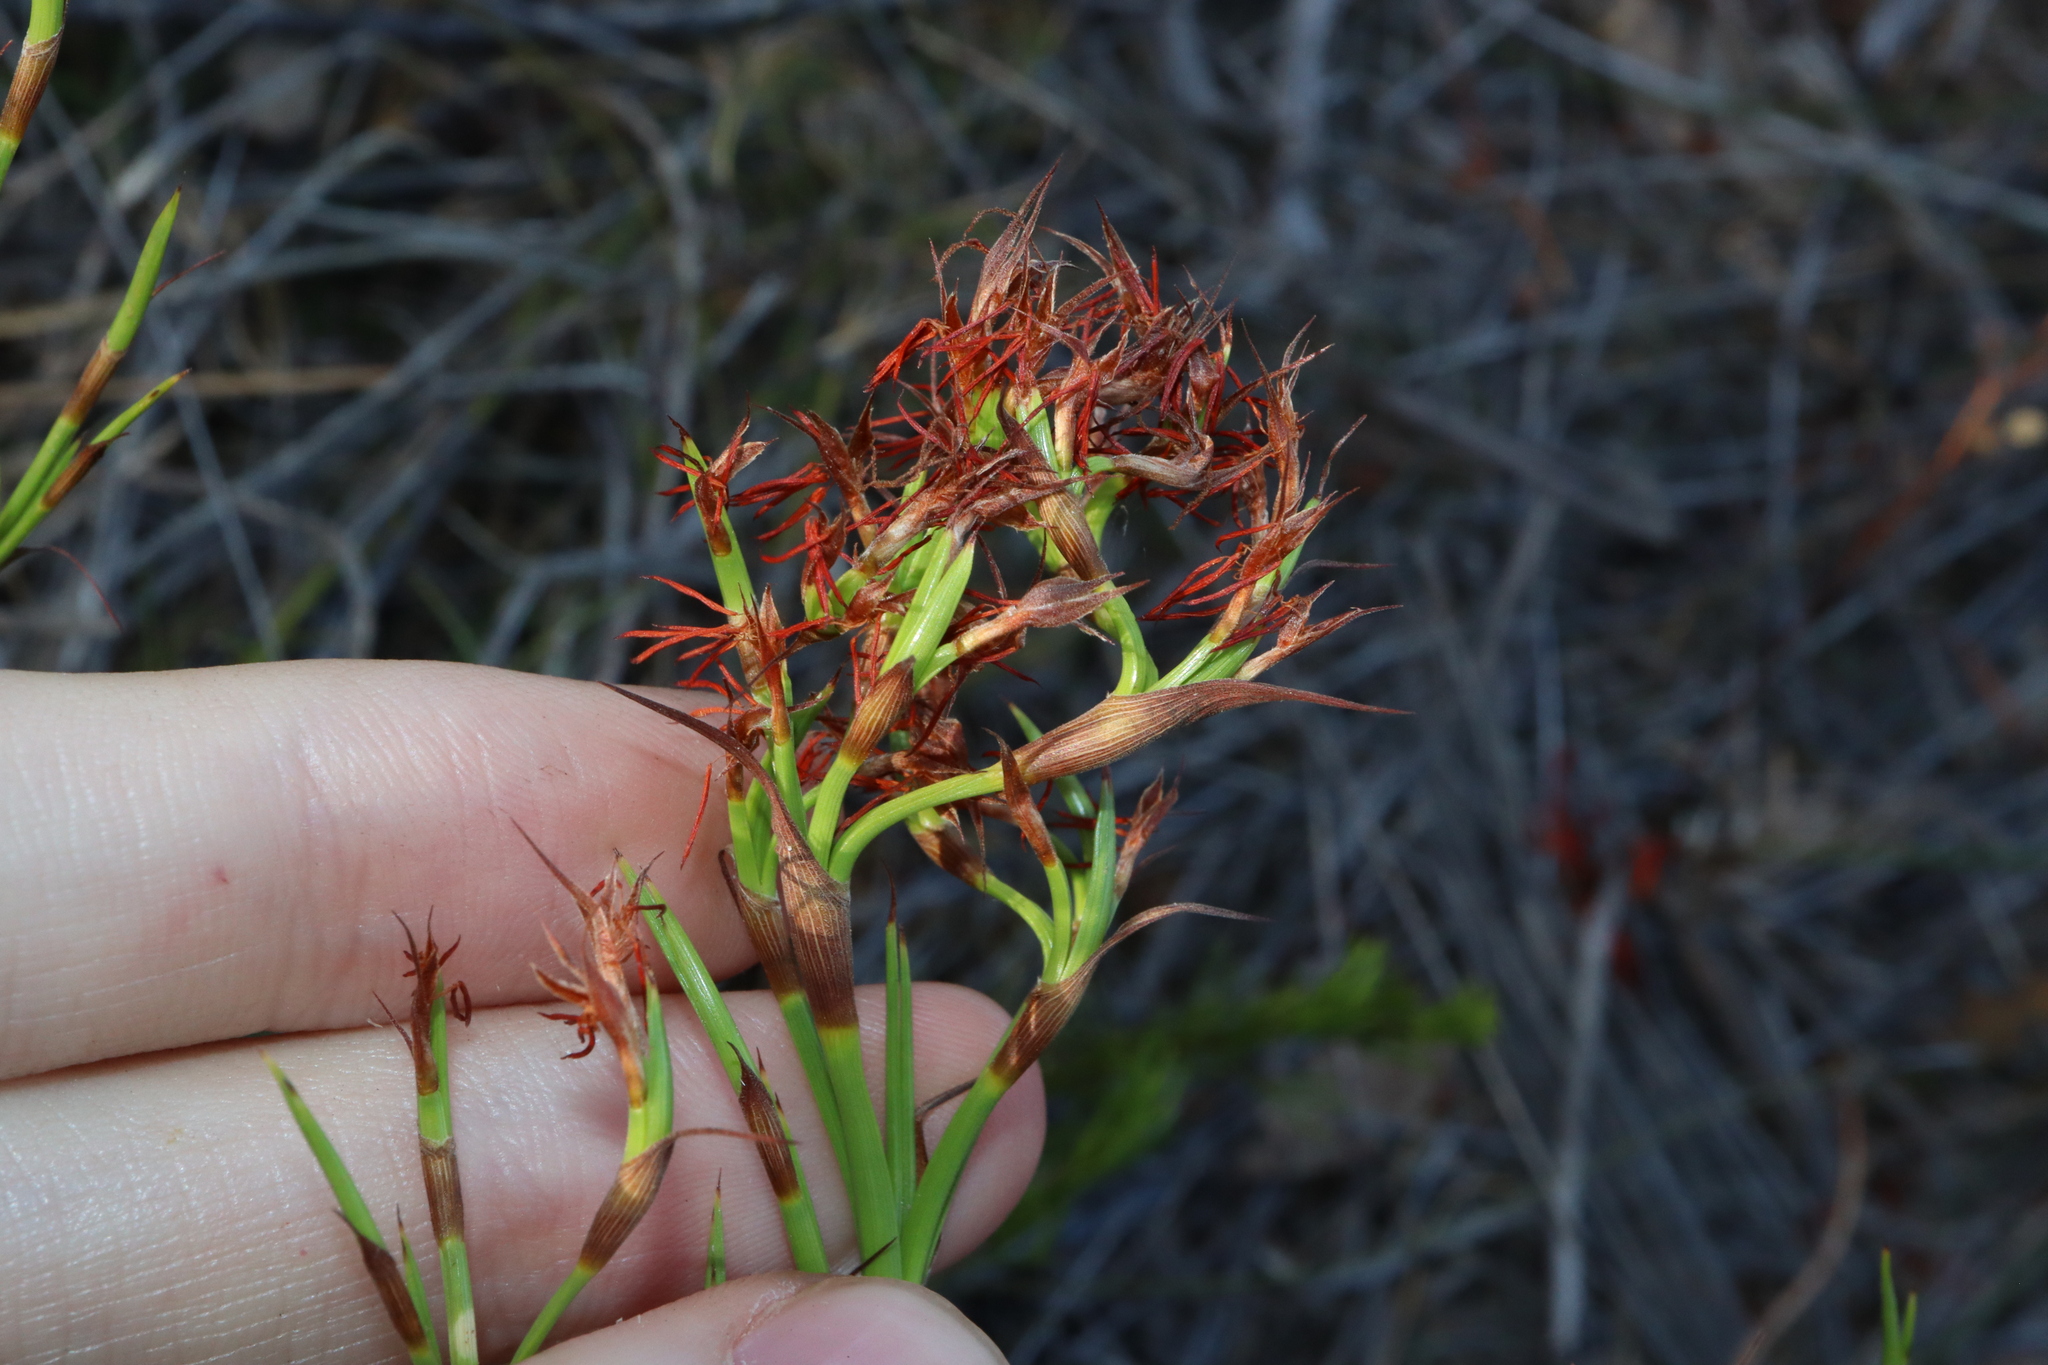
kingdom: Plantae
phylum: Tracheophyta
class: Liliopsida
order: Poales
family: Cyperaceae
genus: Caustis
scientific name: Caustis dioica
